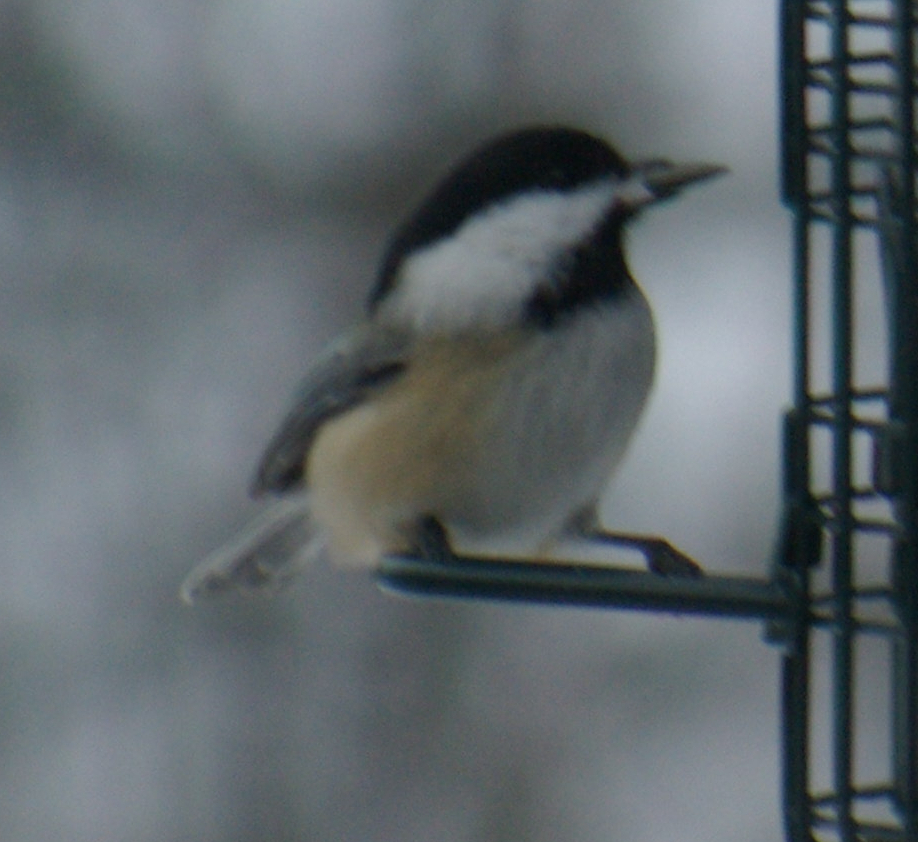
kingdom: Animalia
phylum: Chordata
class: Aves
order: Passeriformes
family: Paridae
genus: Poecile
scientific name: Poecile atricapillus
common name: Black-capped chickadee
